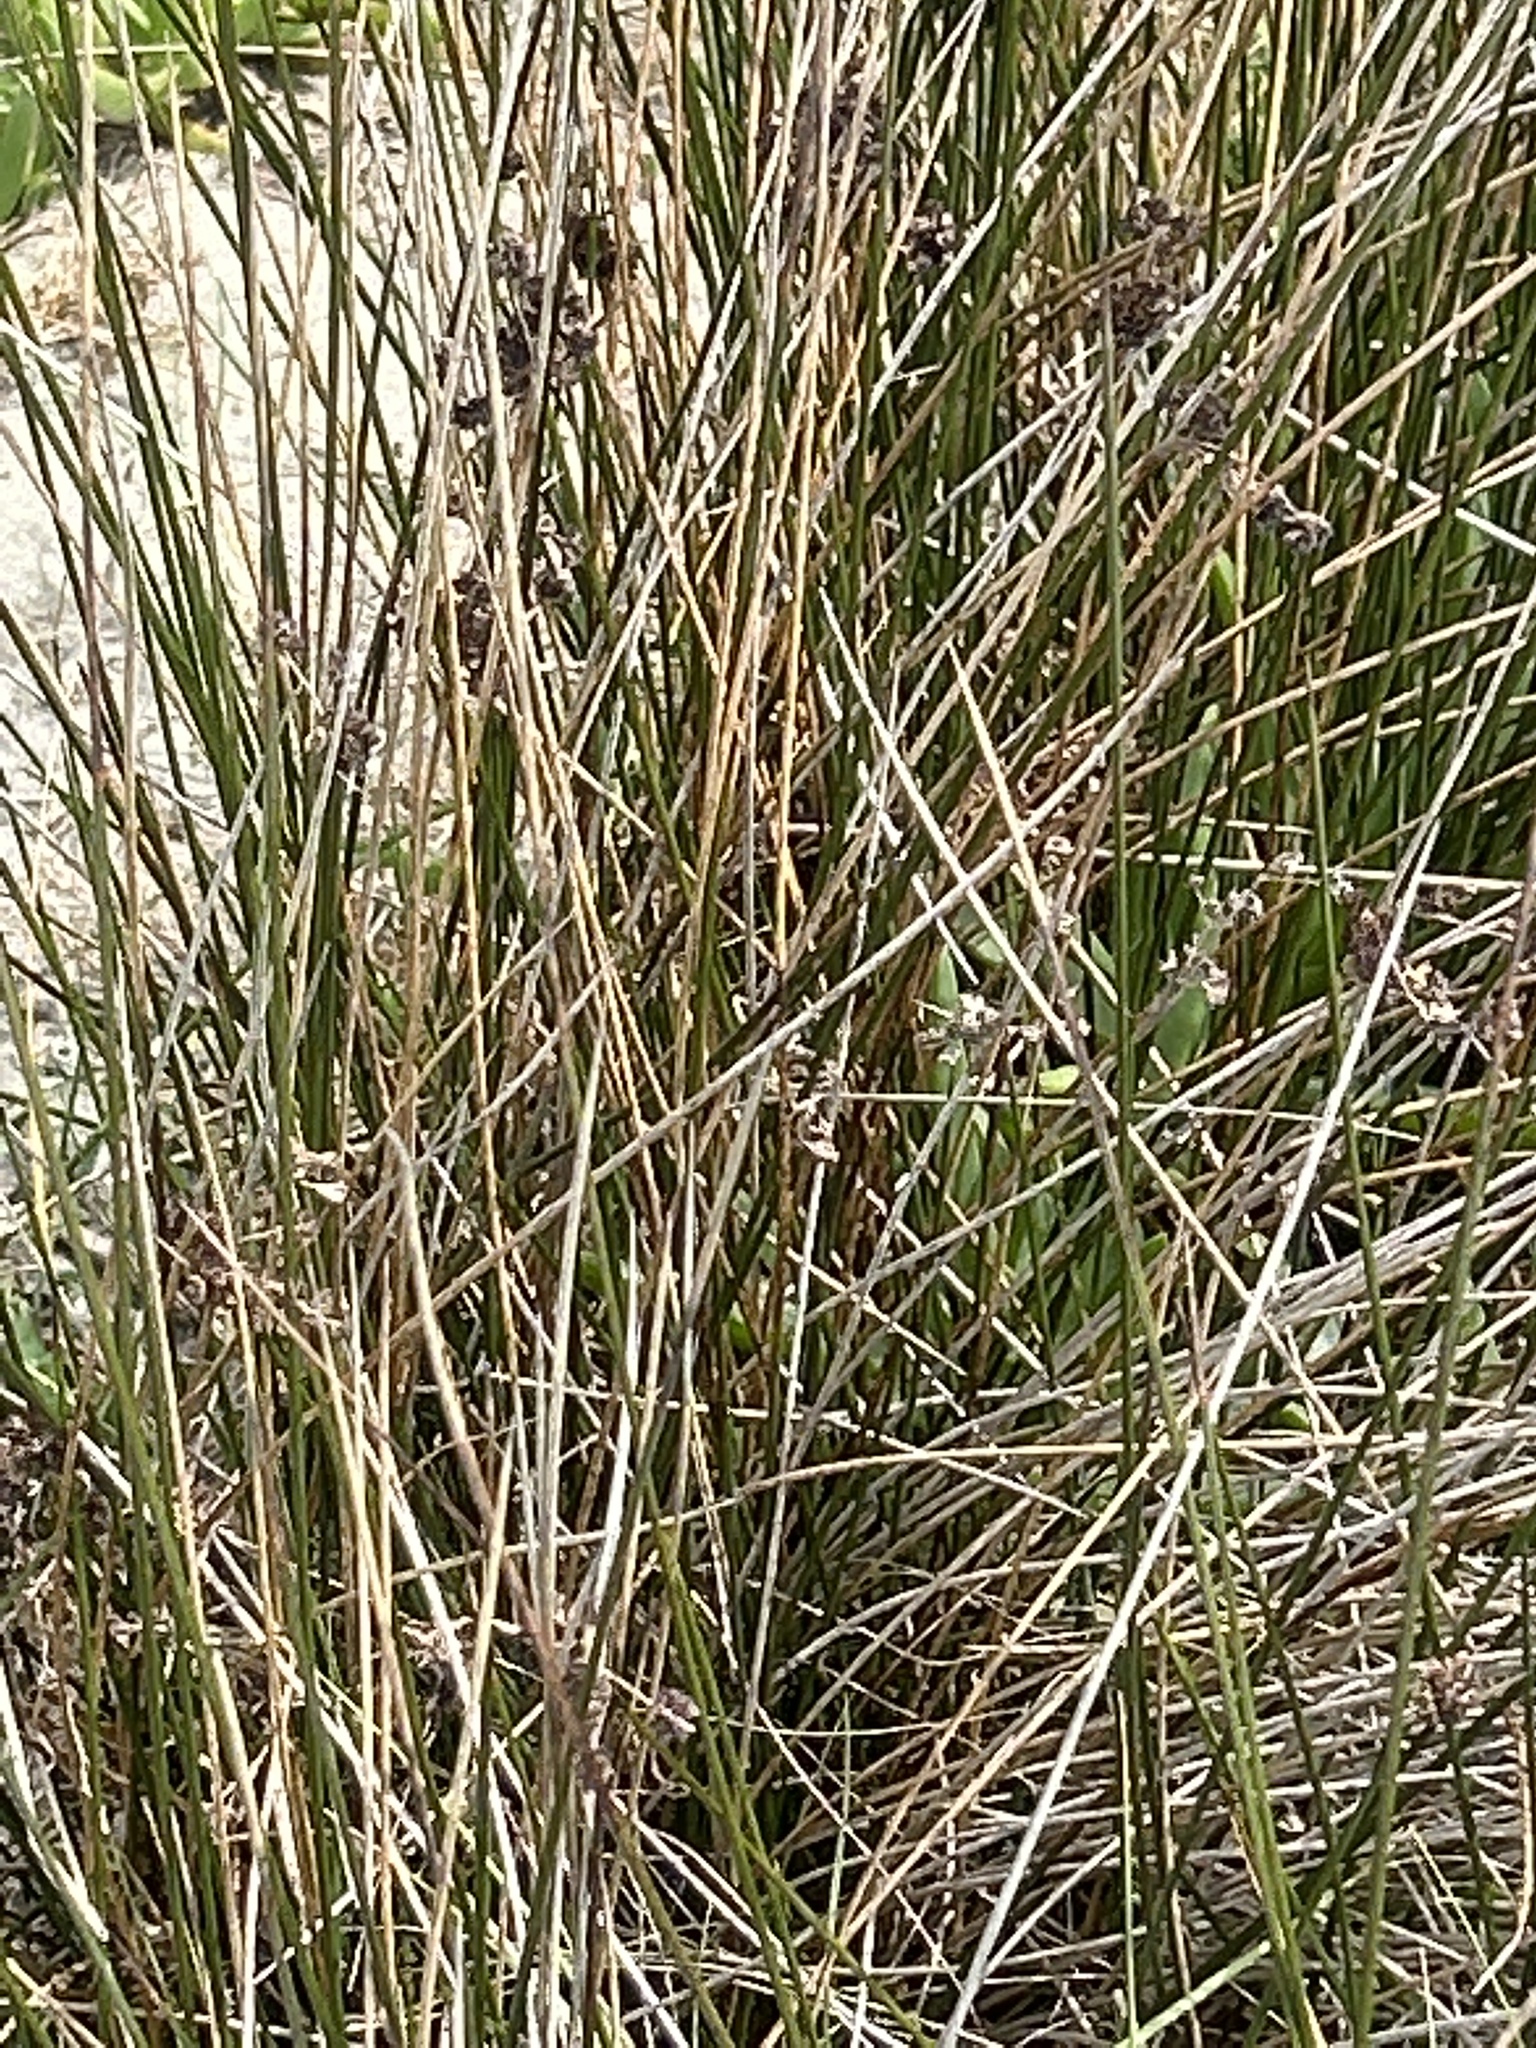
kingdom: Plantae
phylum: Tracheophyta
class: Liliopsida
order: Poales
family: Juncaceae
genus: Juncus
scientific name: Juncus kraussii
